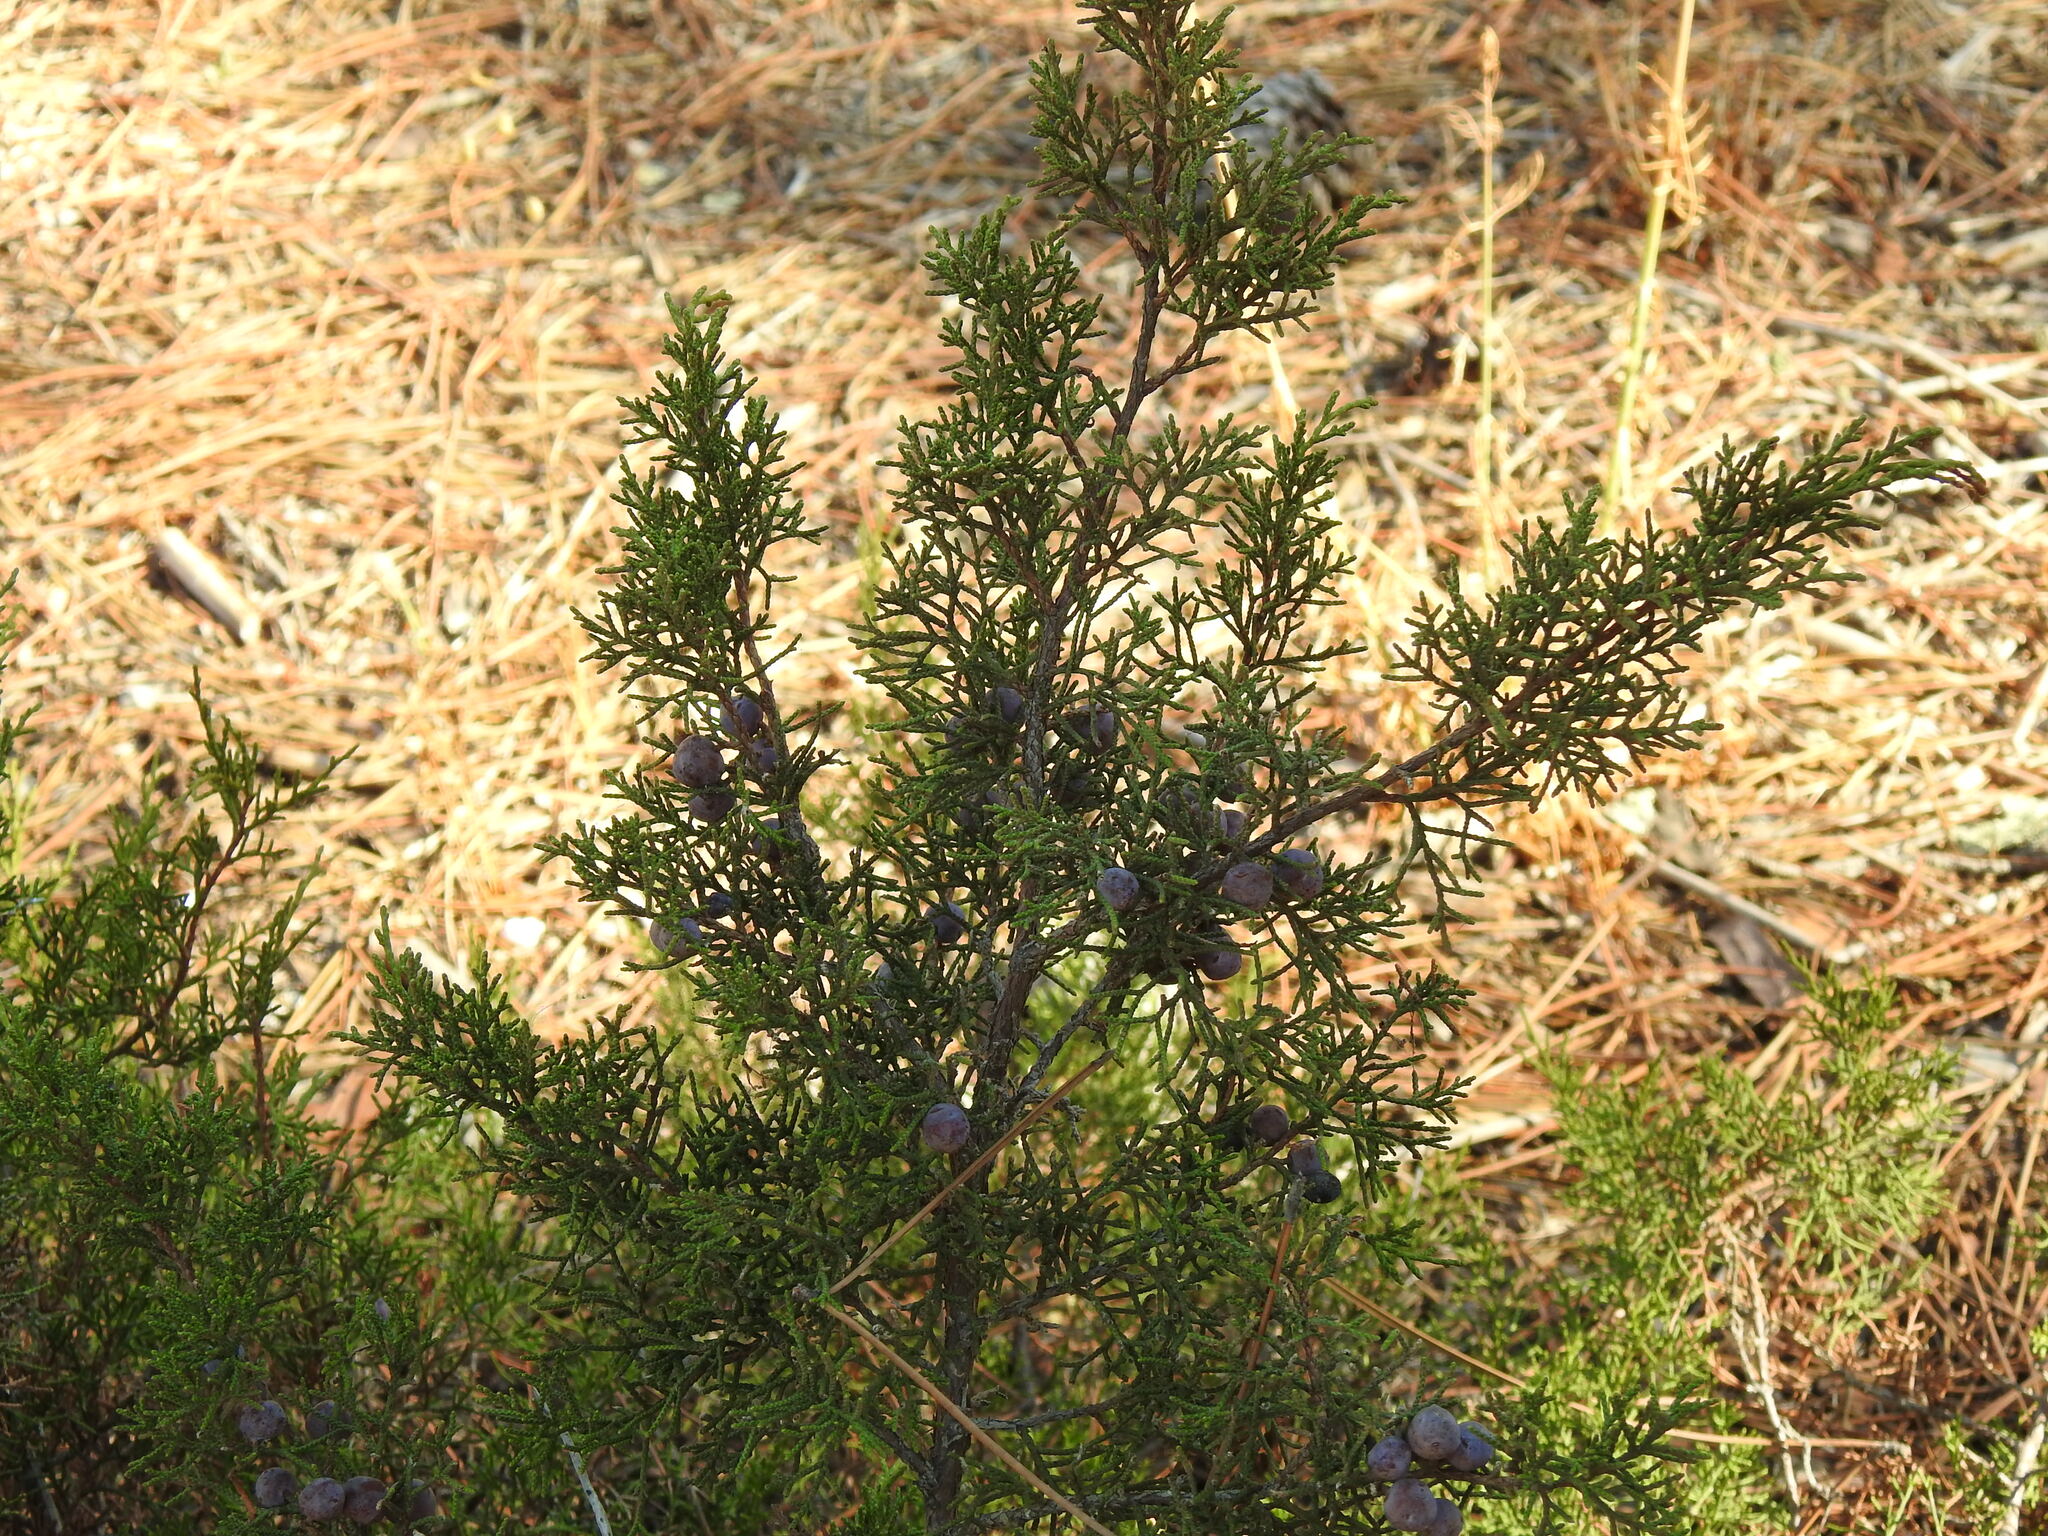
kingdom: Plantae
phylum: Tracheophyta
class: Pinopsida
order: Pinales
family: Cupressaceae
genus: Juniperus
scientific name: Juniperus phoenicea
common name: Phoenician juniper
